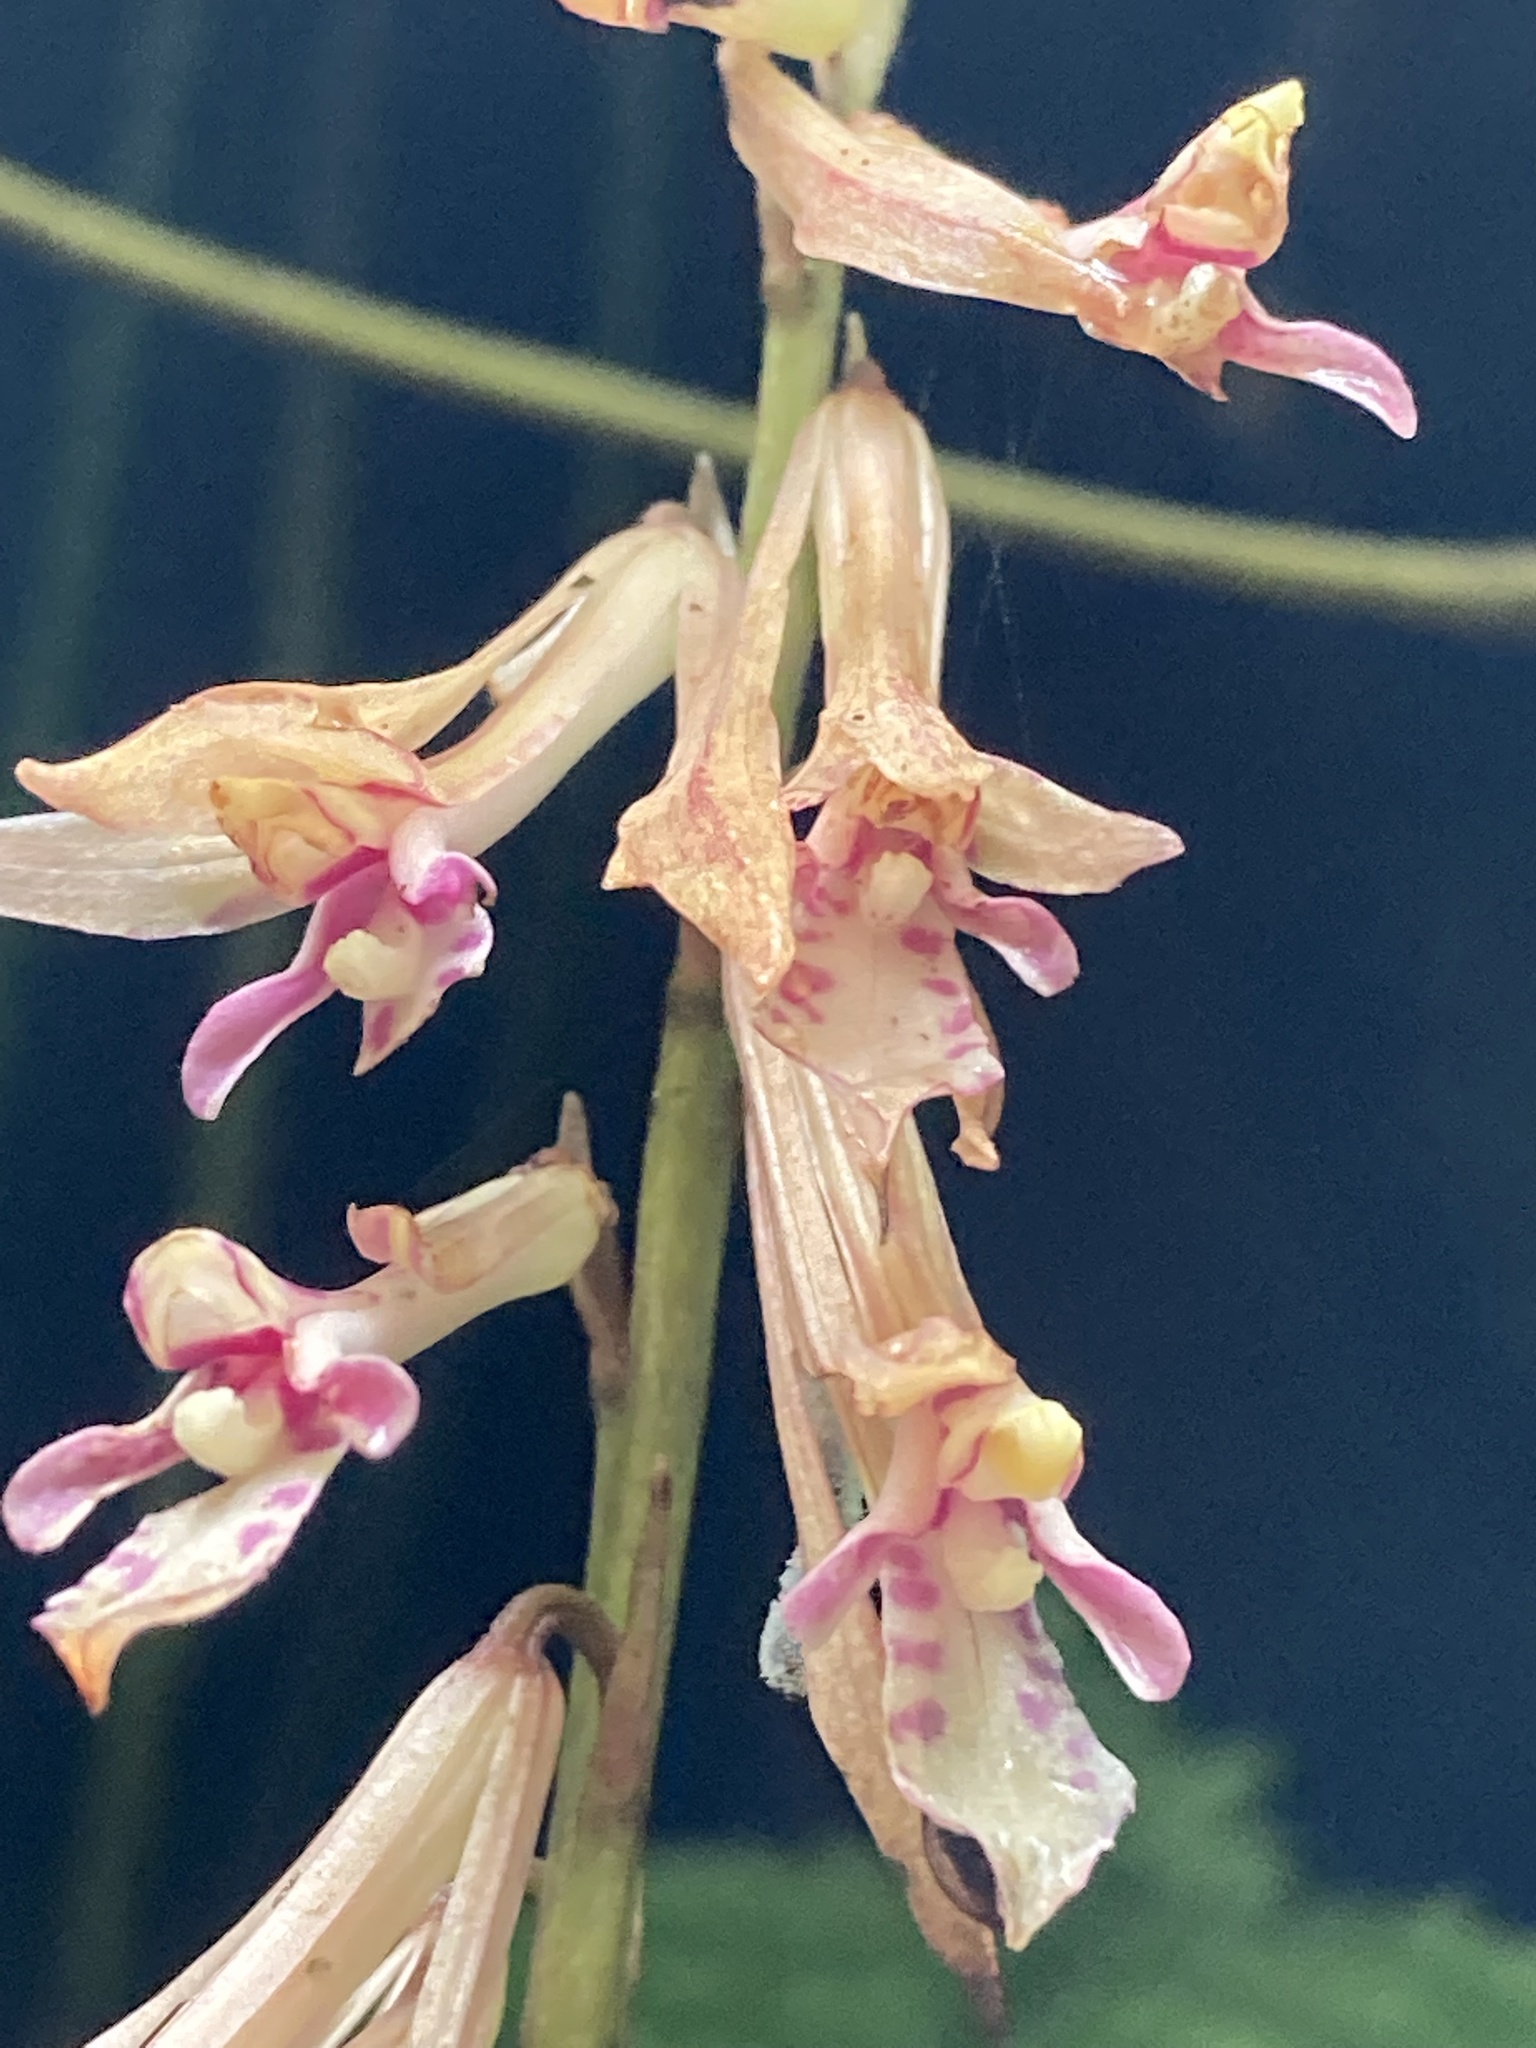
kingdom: Plantae
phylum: Tracheophyta
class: Liliopsida
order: Asparagales
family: Orchidaceae
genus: Cremastra
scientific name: Cremastra appendiculata
